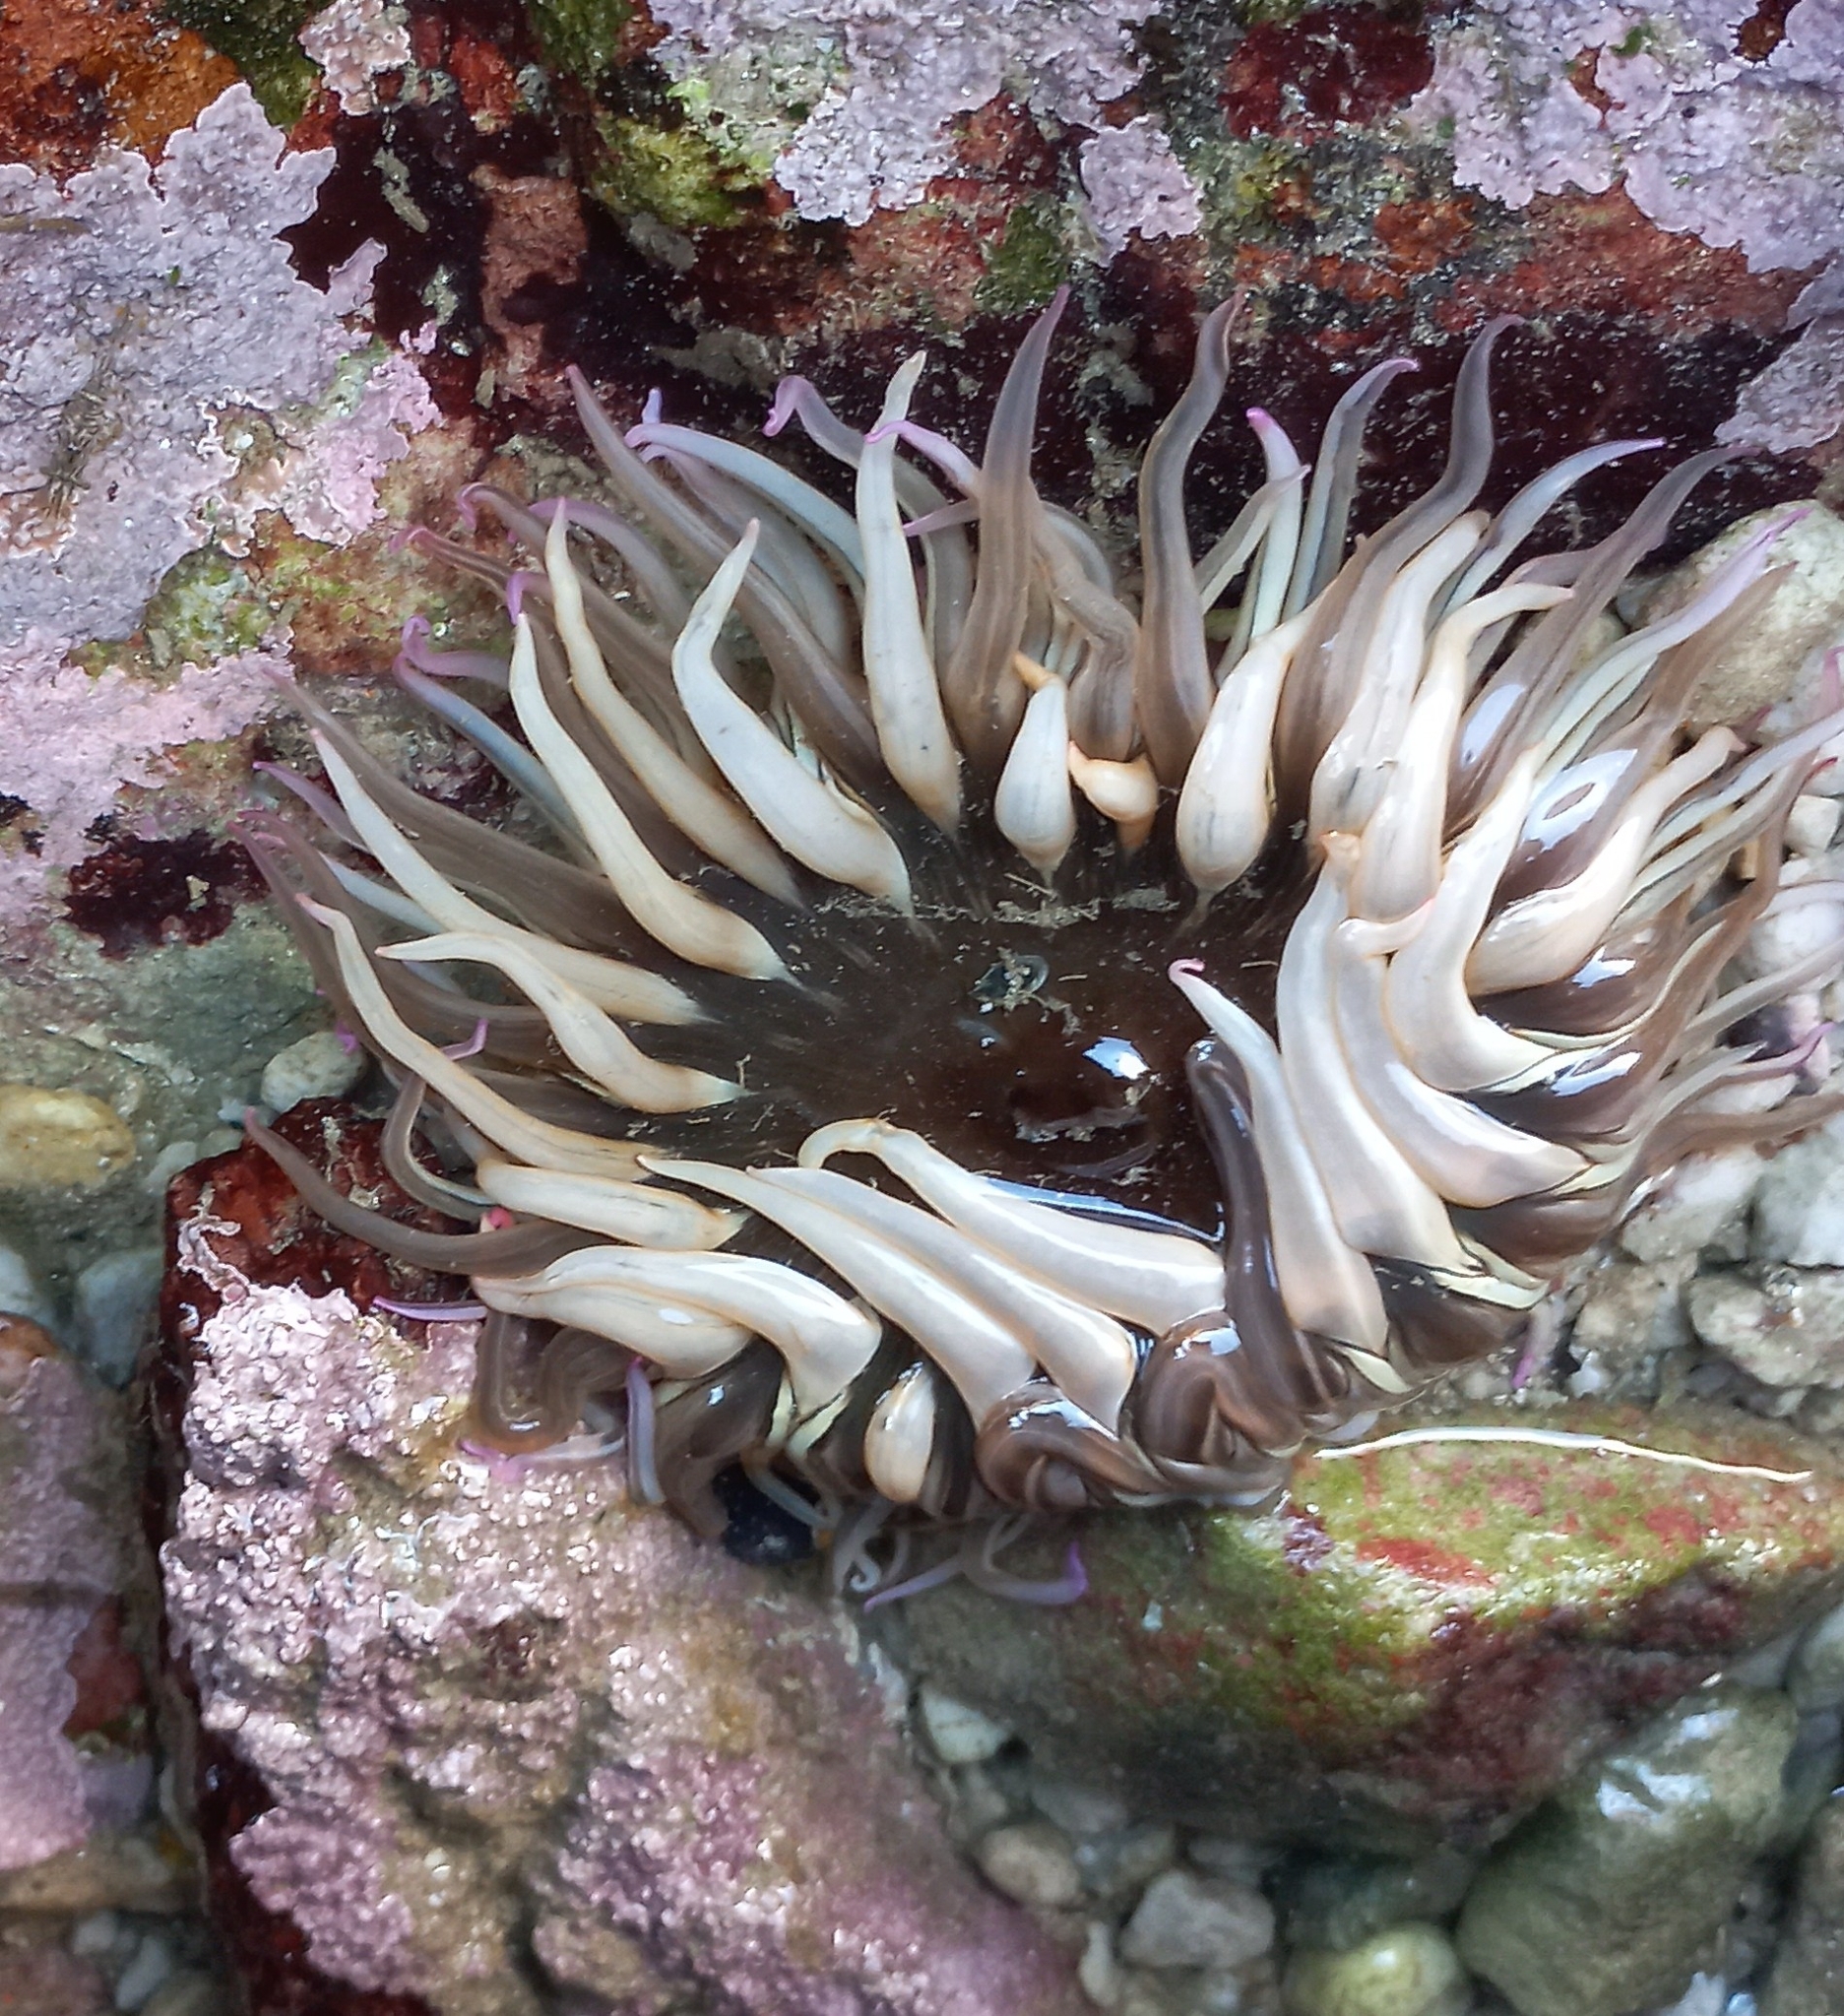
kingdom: Animalia
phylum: Cnidaria
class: Anthozoa
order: Actiniaria
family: Actiniidae
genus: Anthopleura
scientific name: Anthopleura michaelseni
